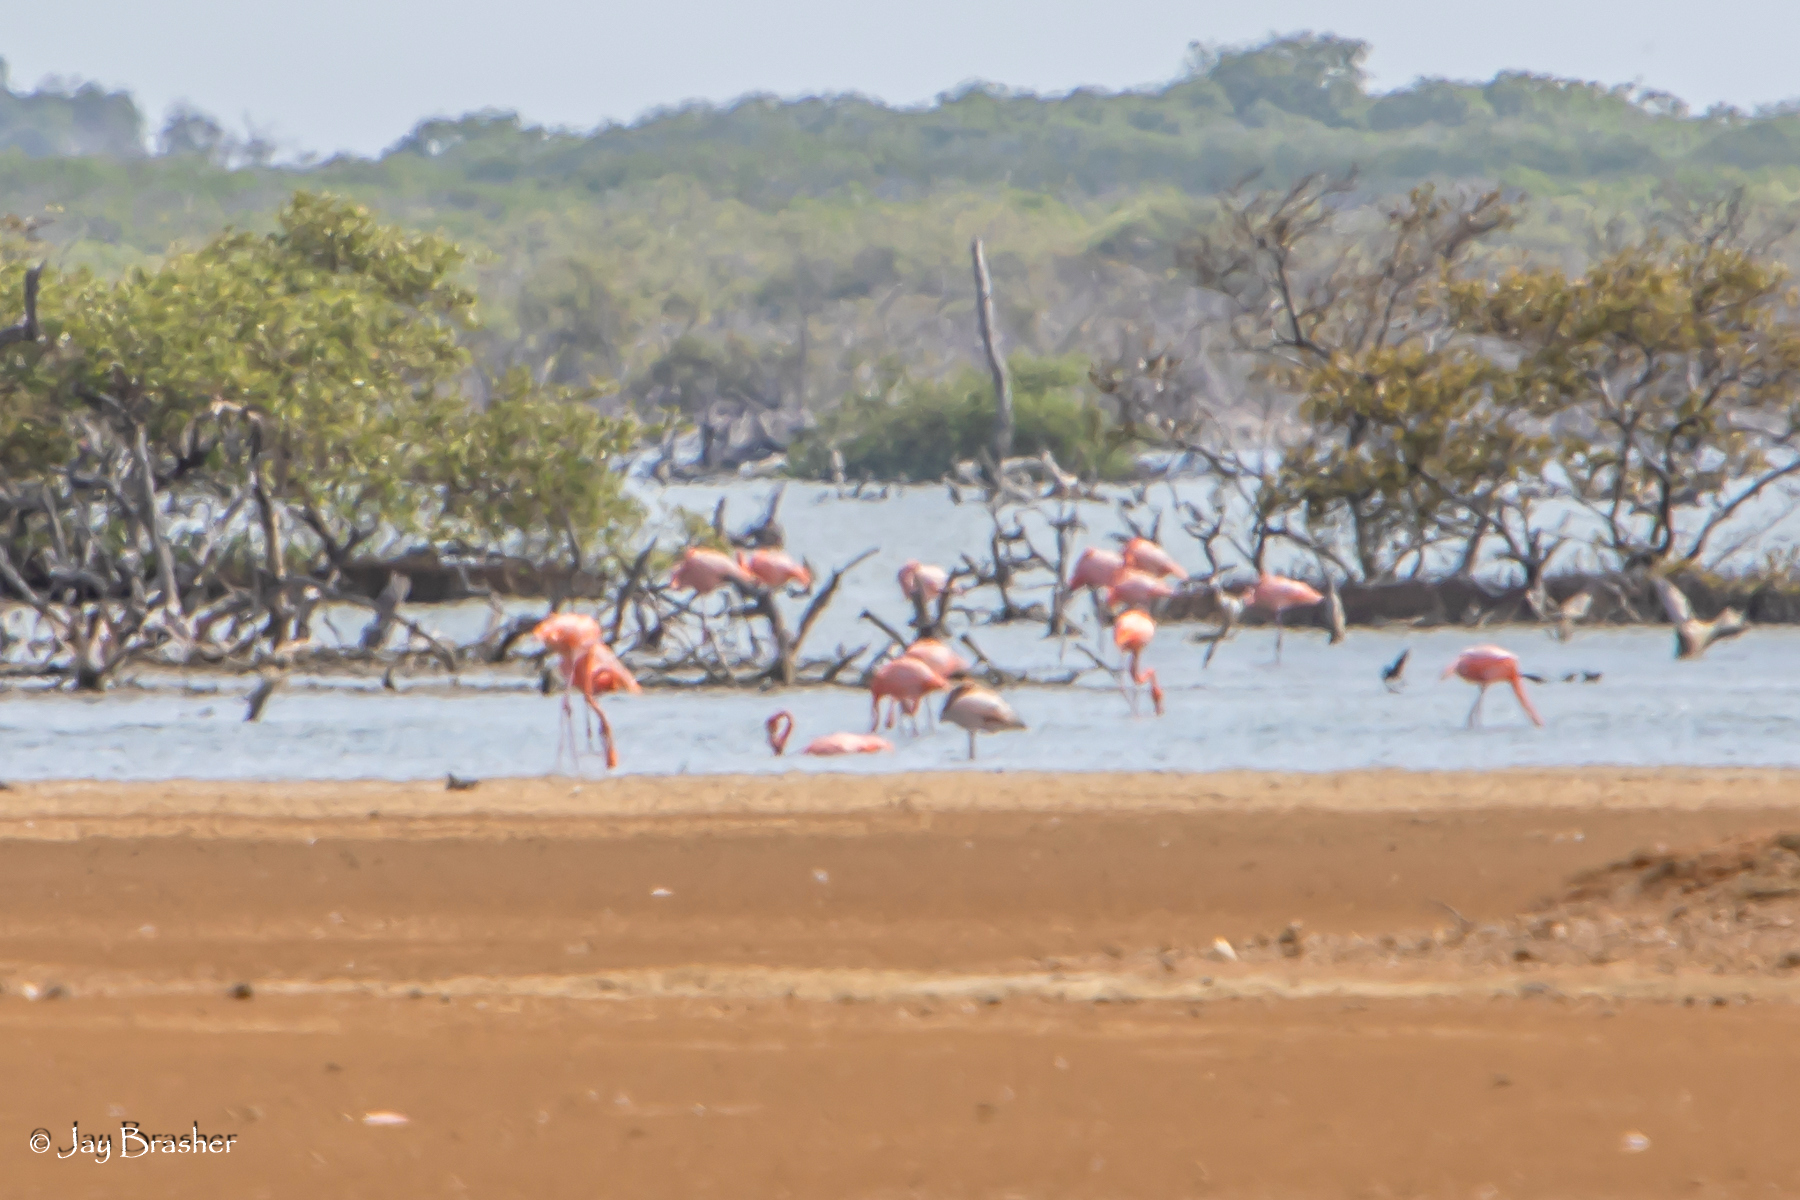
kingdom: Animalia
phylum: Chordata
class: Aves
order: Phoenicopteriformes
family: Phoenicopteridae
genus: Phoenicopterus
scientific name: Phoenicopterus ruber
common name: American flamingo
